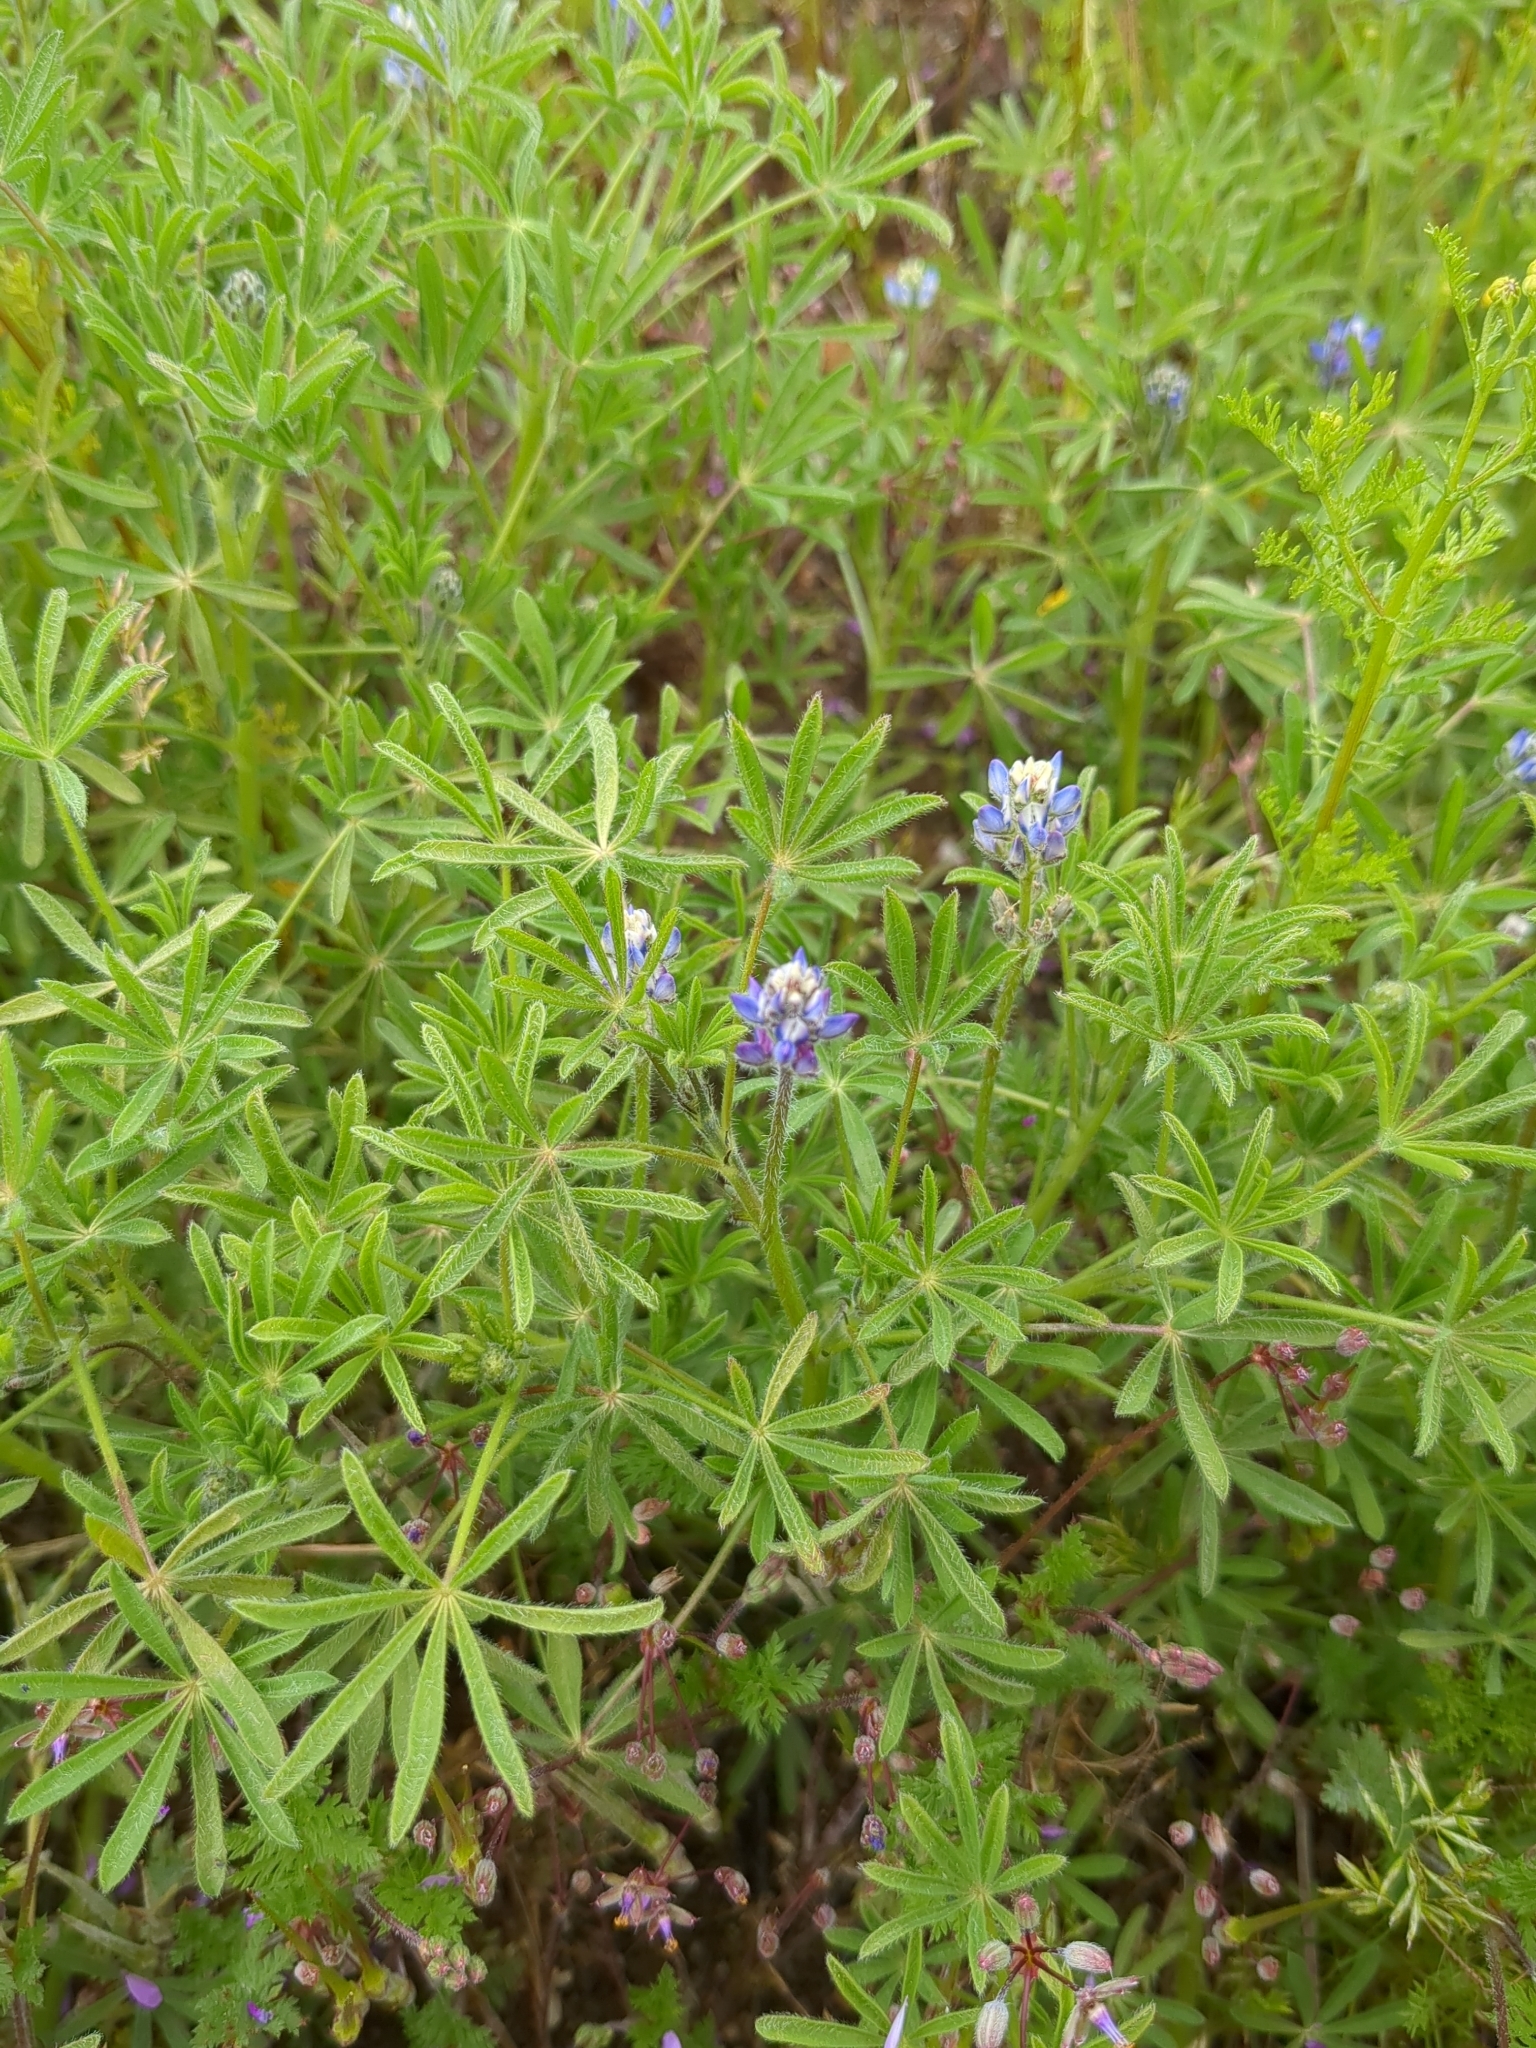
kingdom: Plantae
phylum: Tracheophyta
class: Magnoliopsida
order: Fabales
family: Fabaceae
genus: Lupinus
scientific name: Lupinus bicolor
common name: Miniature lupine
